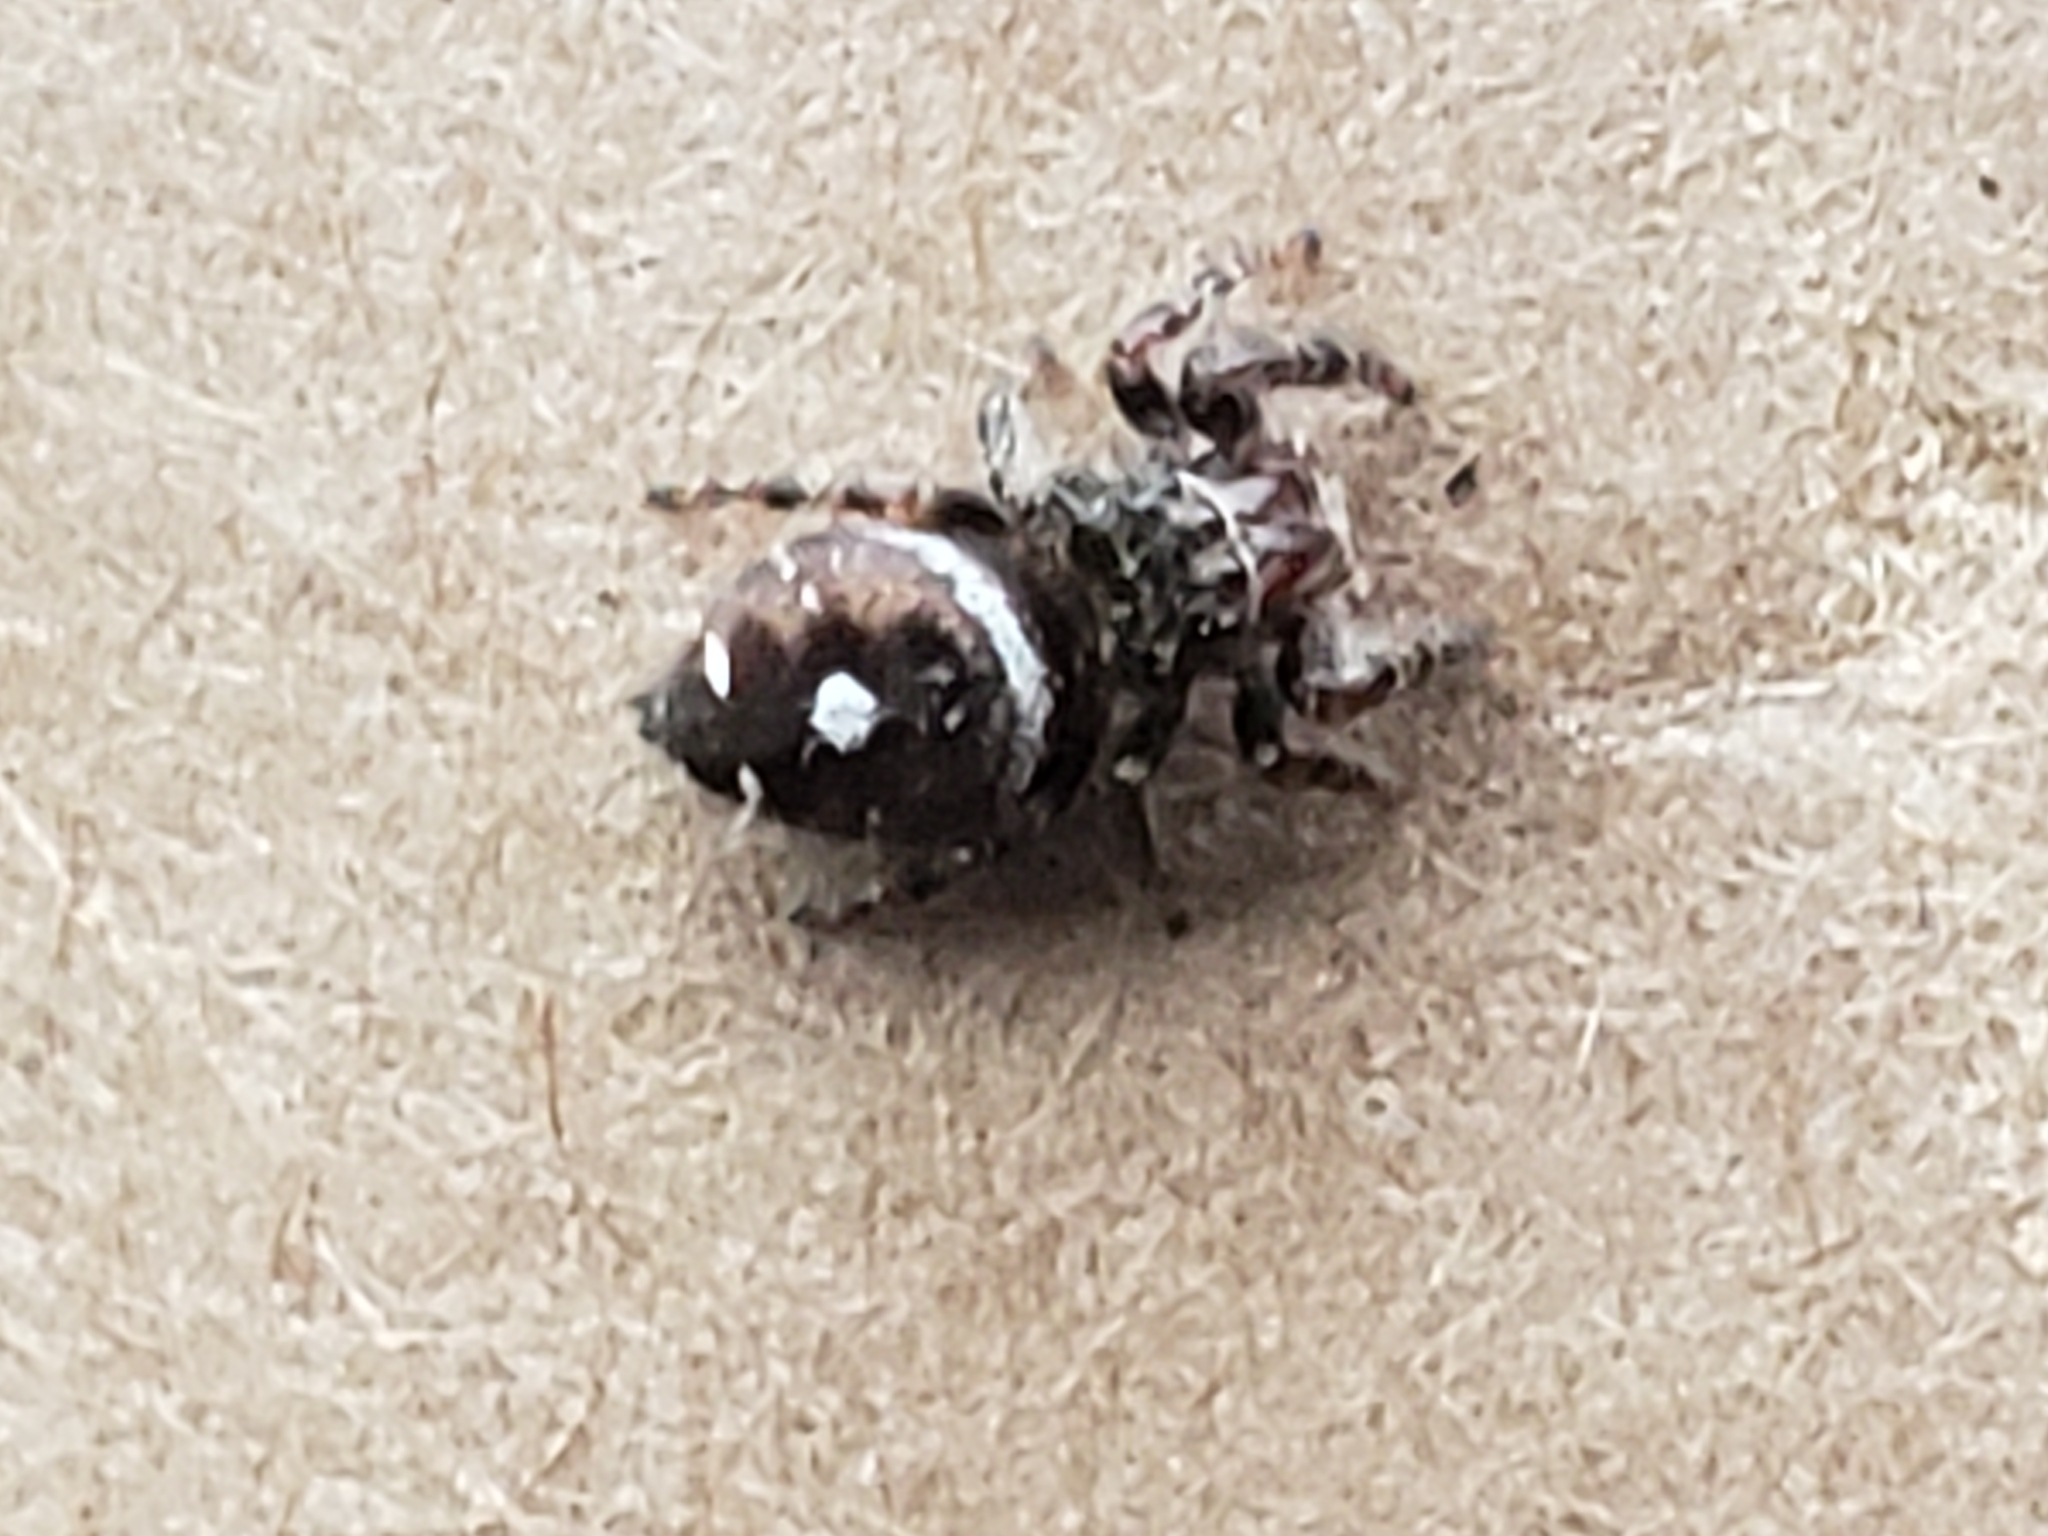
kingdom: Animalia
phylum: Arthropoda
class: Arachnida
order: Araneae
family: Salticidae
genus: Phidippus
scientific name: Phidippus audax
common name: Bold jumper
